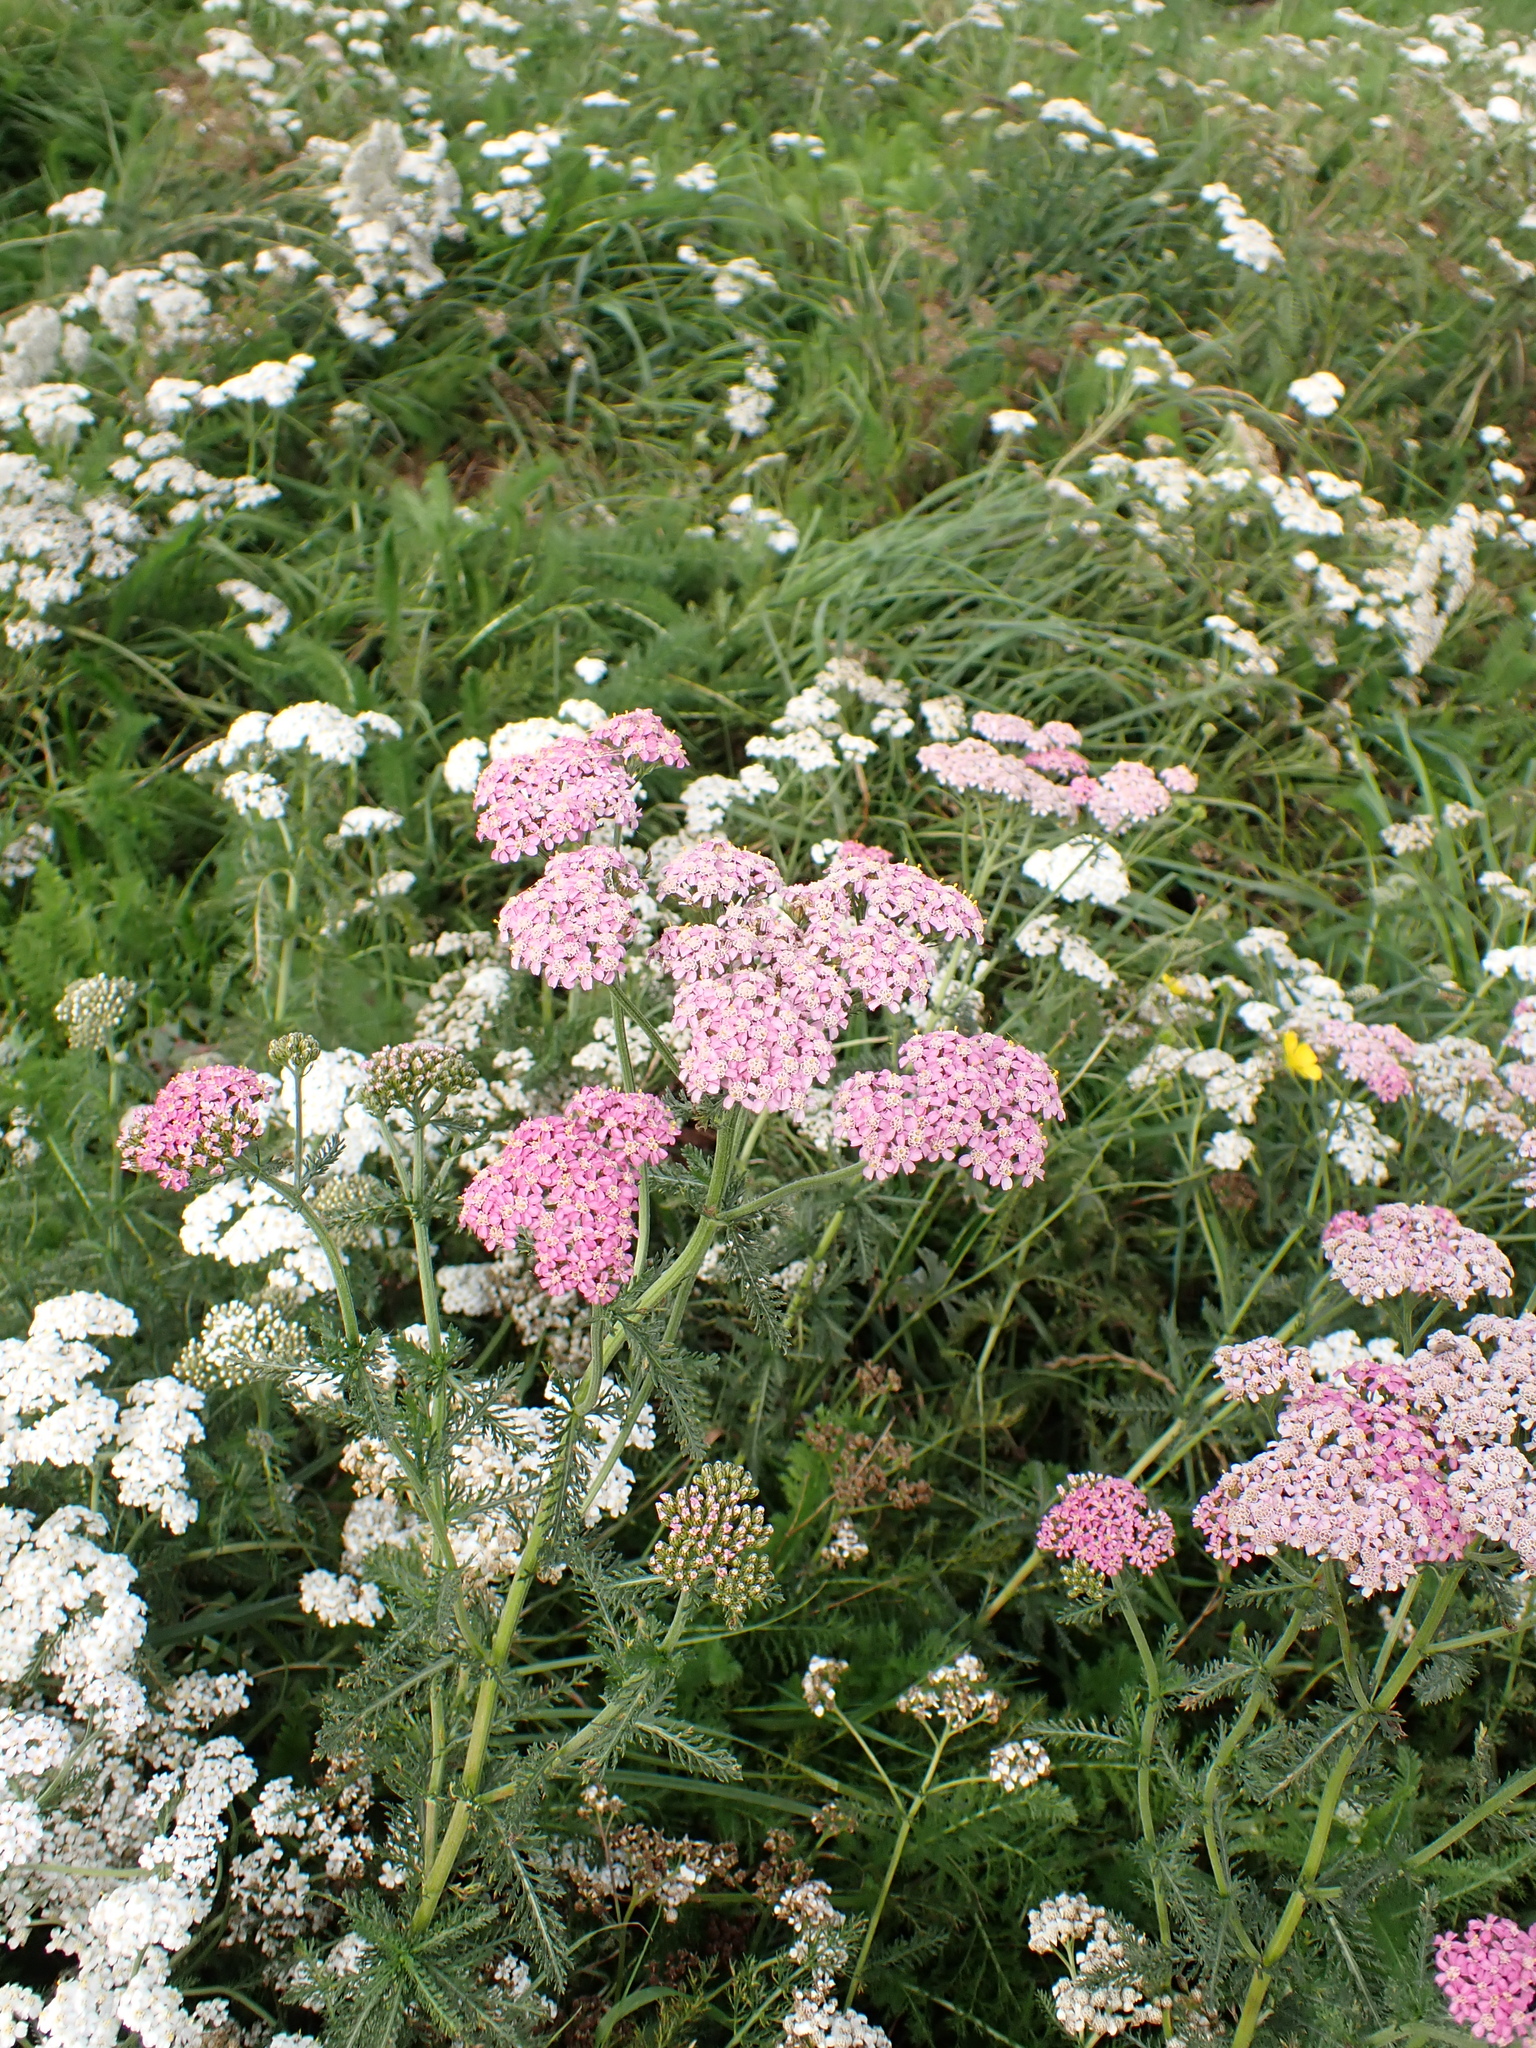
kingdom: Plantae
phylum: Tracheophyta
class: Magnoliopsida
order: Asterales
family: Asteraceae
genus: Achillea
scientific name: Achillea millefolium
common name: Yarrow
